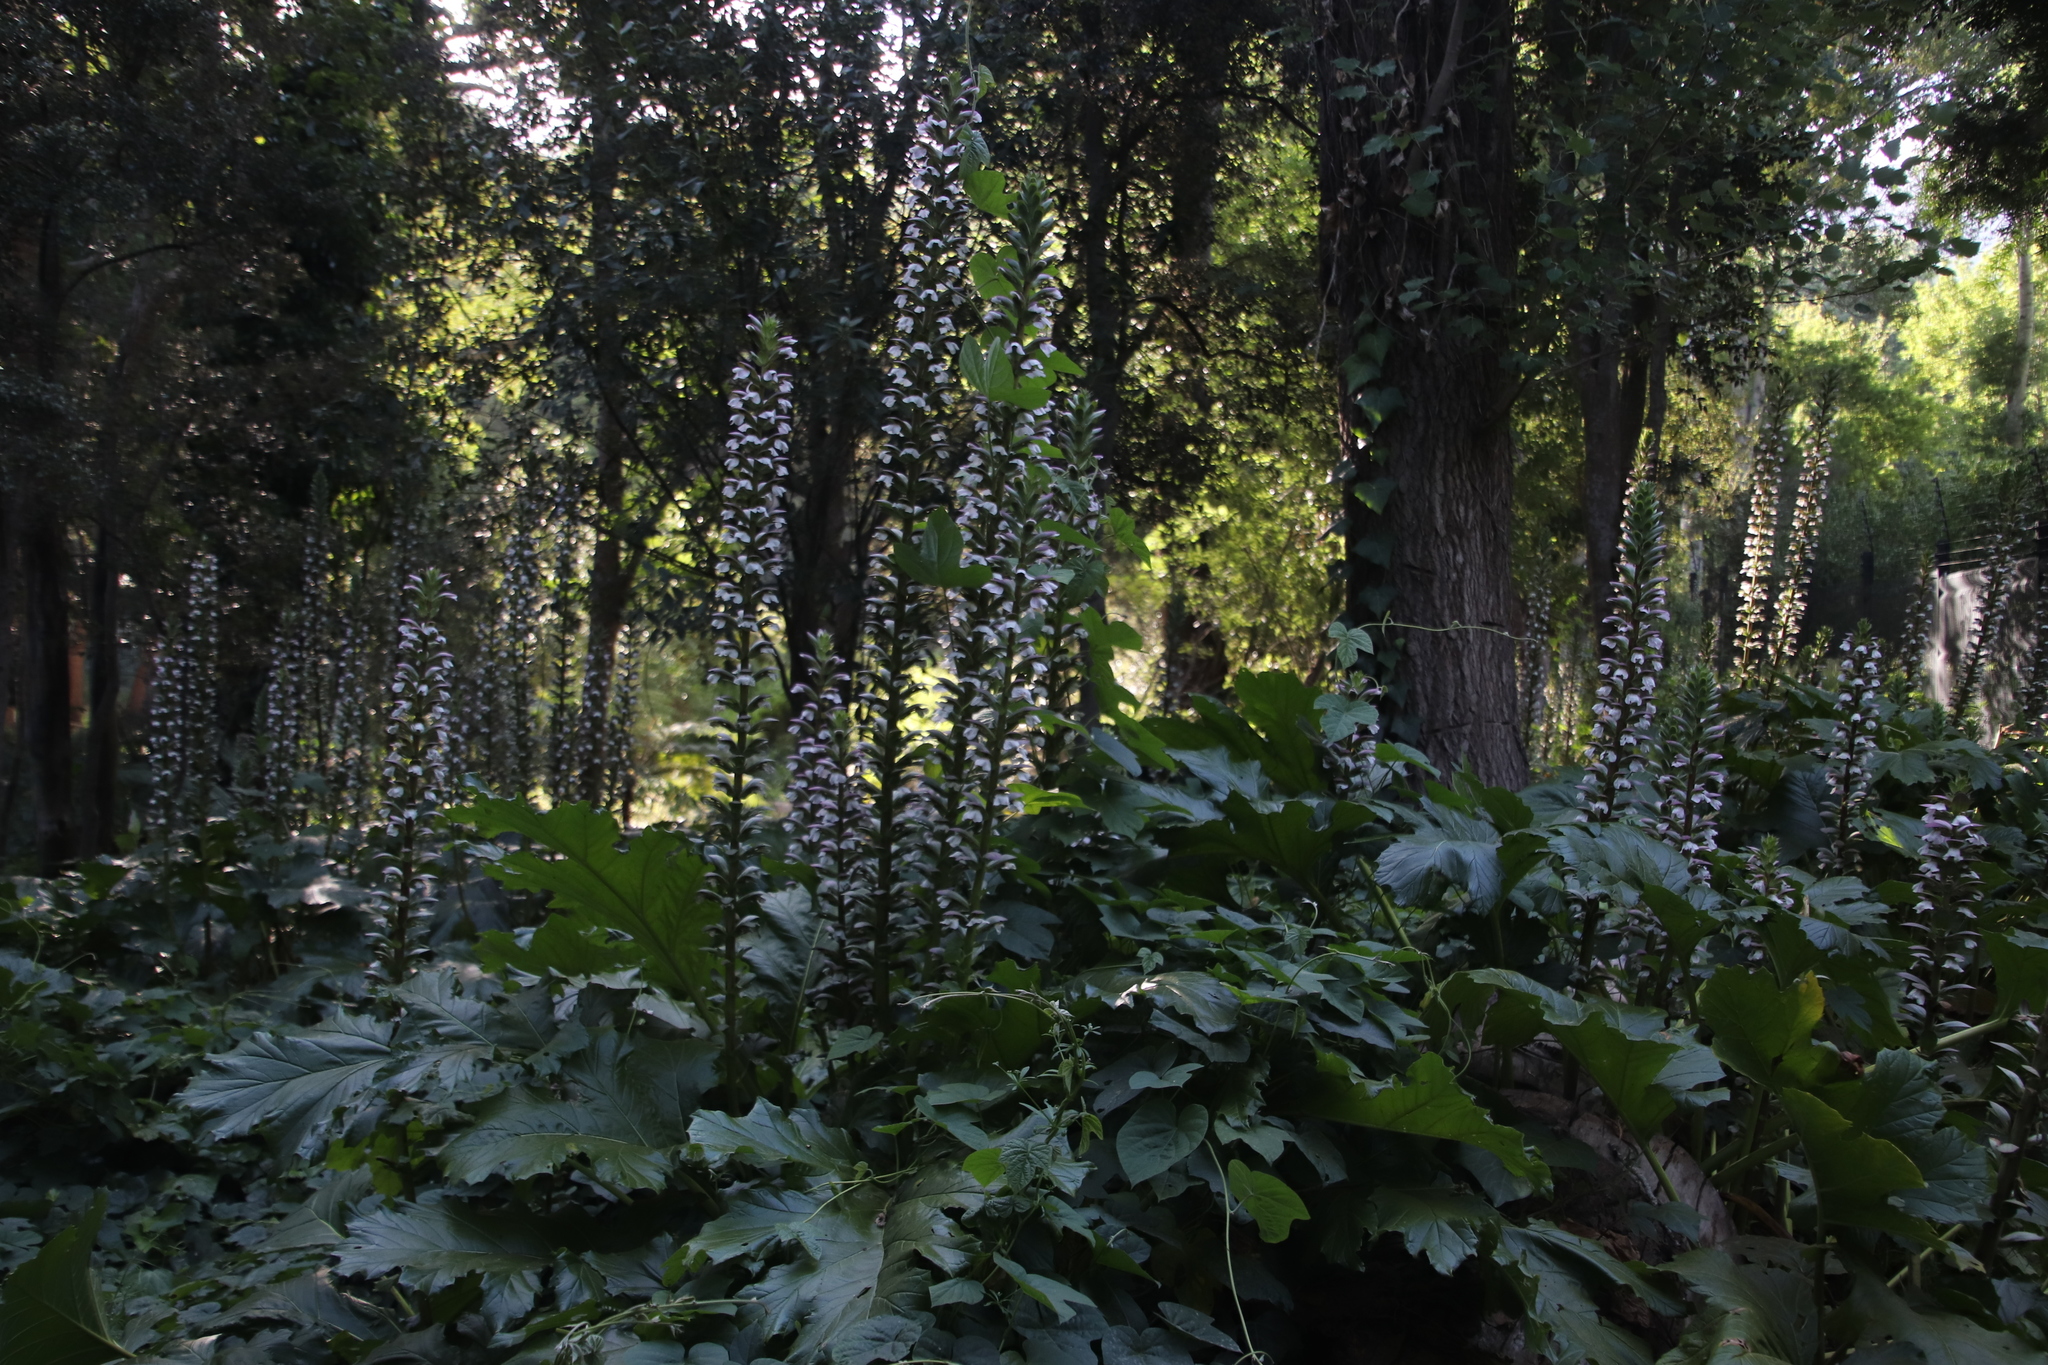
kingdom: Plantae
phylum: Tracheophyta
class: Magnoliopsida
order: Lamiales
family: Acanthaceae
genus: Acanthus
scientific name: Acanthus mollis
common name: Bear's-breech
